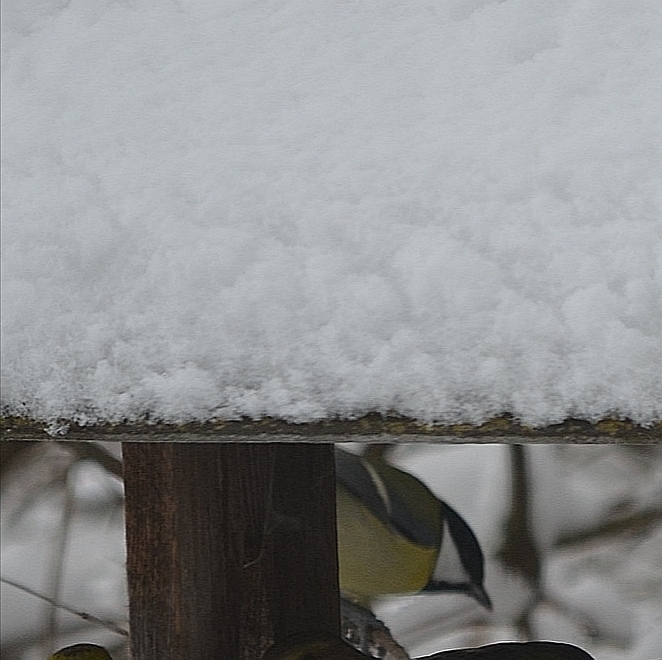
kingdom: Animalia
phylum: Chordata
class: Aves
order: Passeriformes
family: Paridae
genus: Parus
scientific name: Parus major
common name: Great tit
